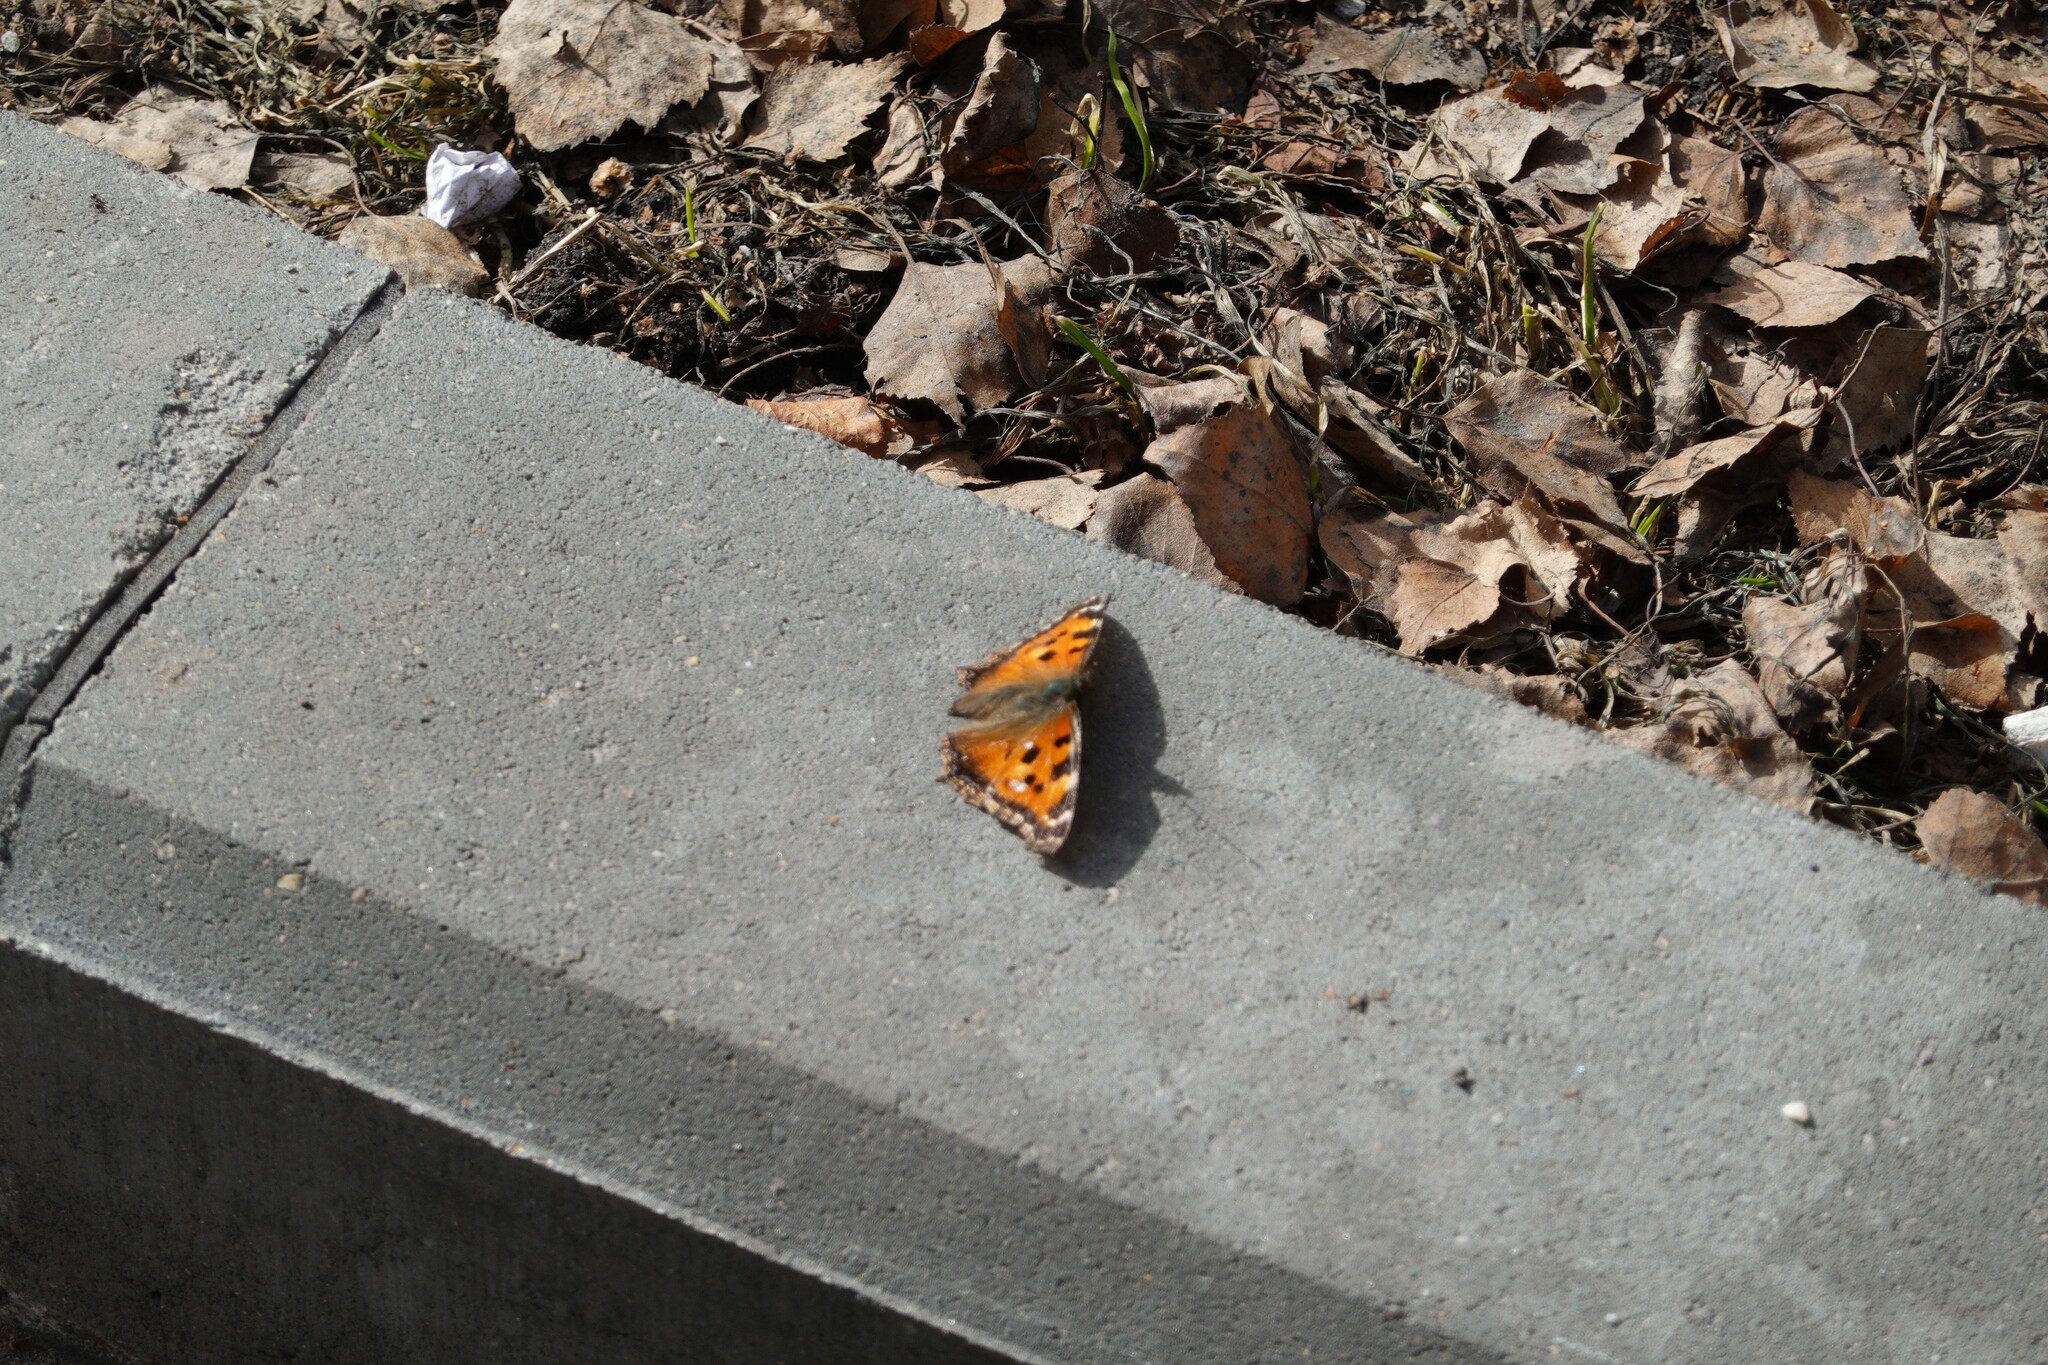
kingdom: Animalia
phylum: Arthropoda
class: Insecta
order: Lepidoptera
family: Nymphalidae
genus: Nymphalis
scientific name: Nymphalis xanthomelas
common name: Scarce tortoiseshell
